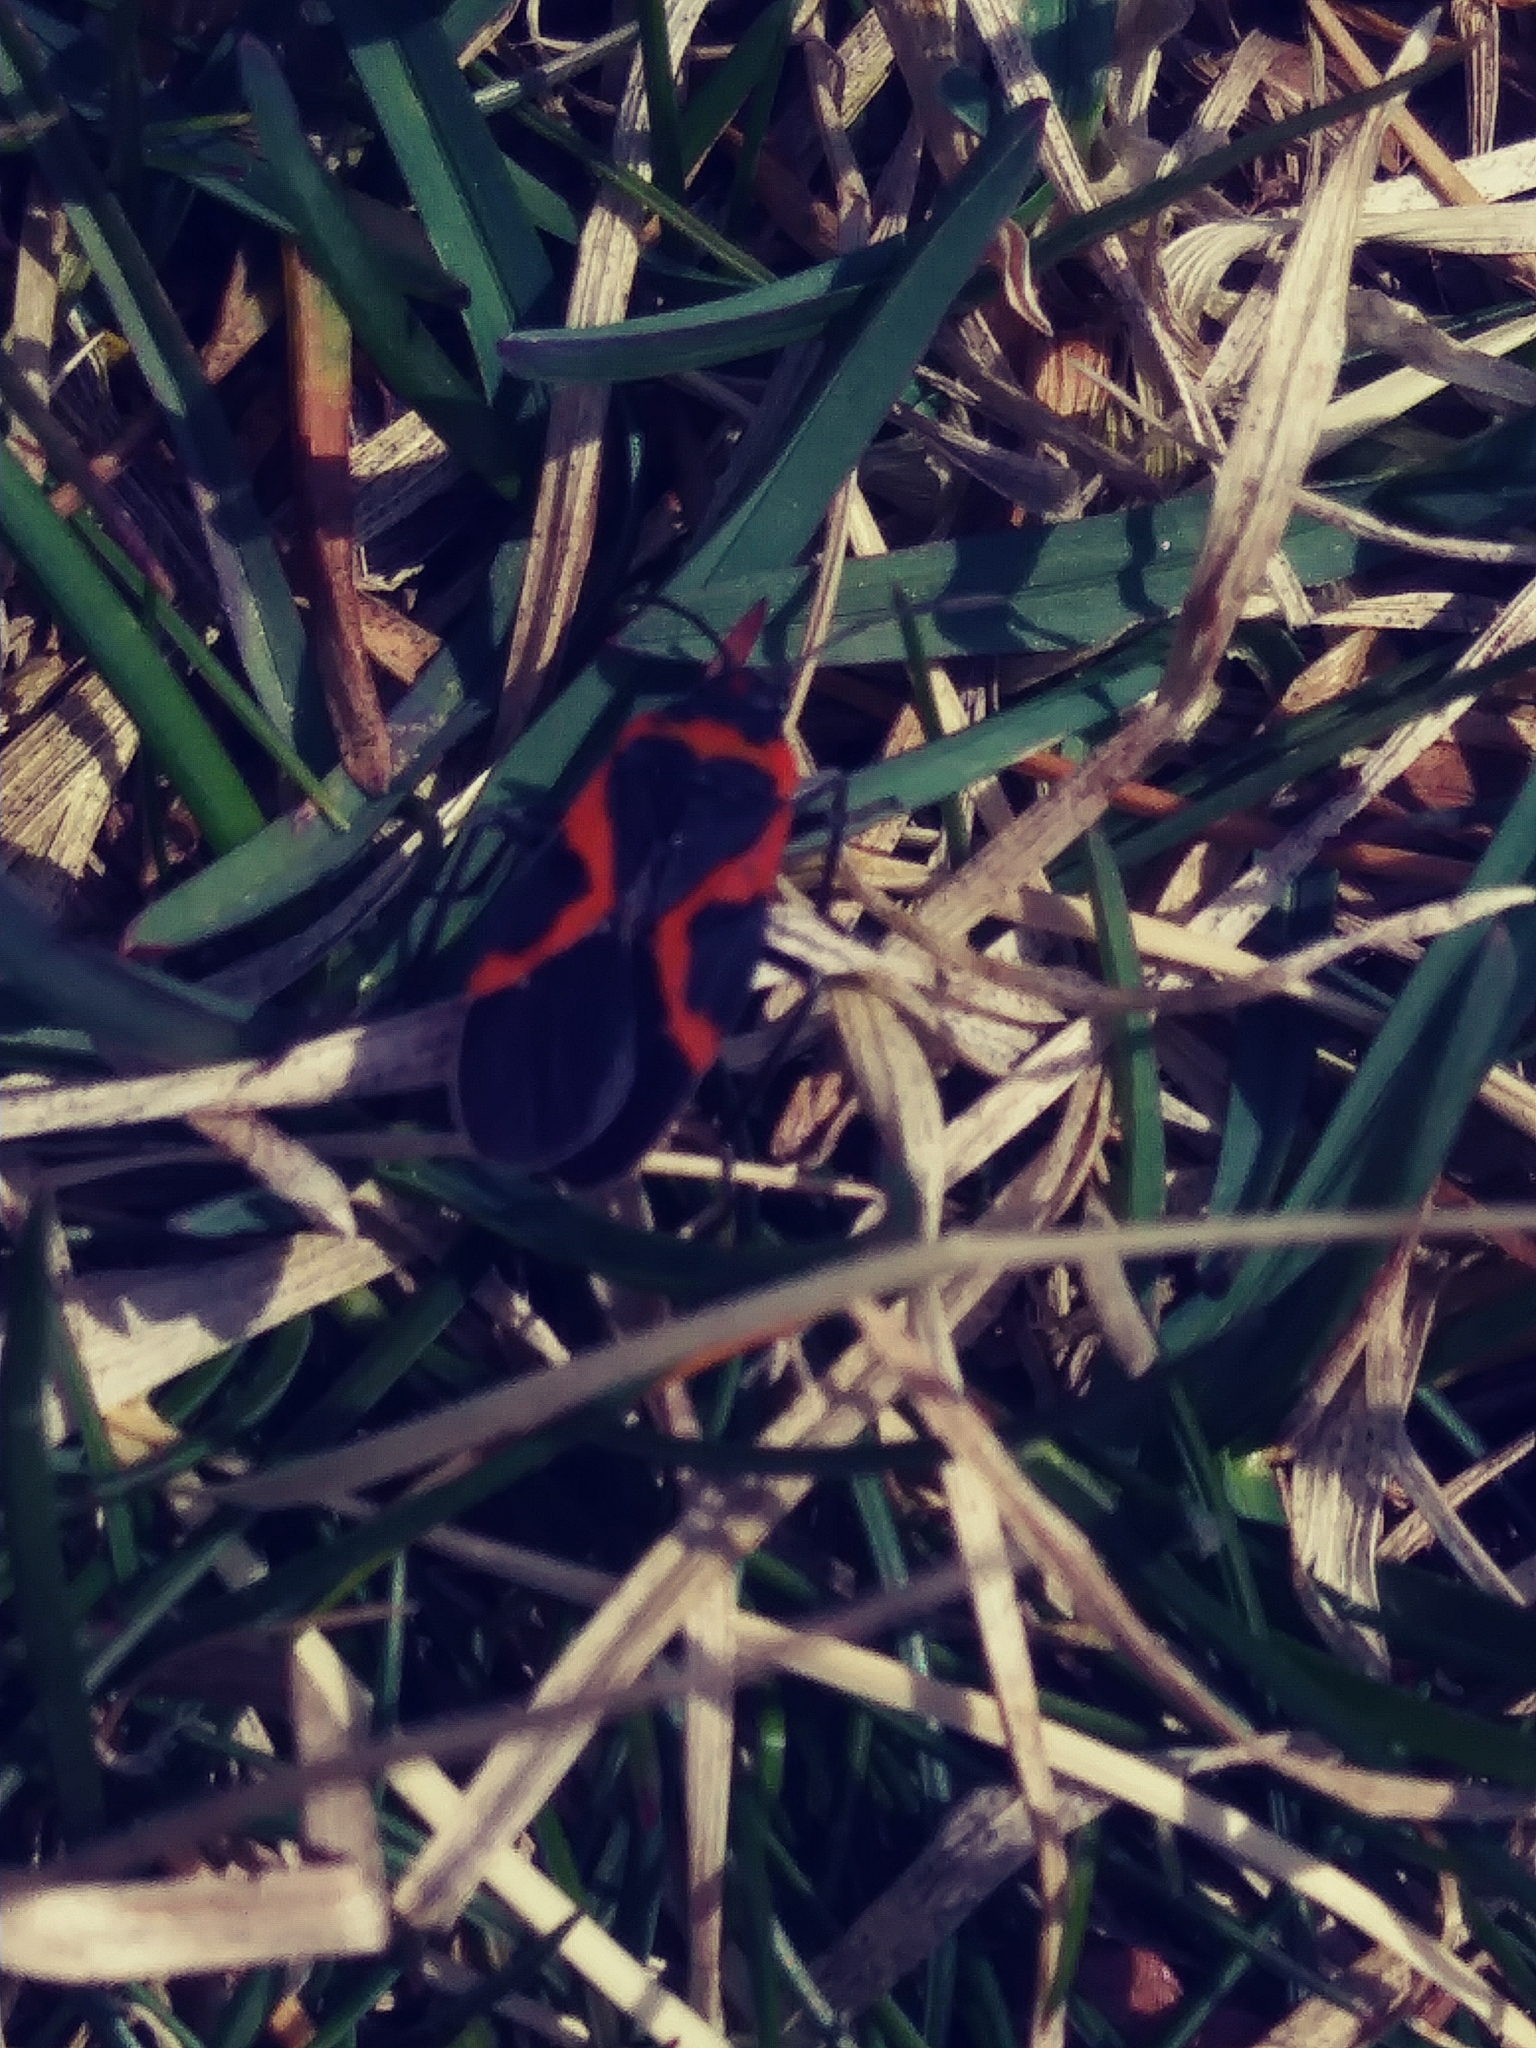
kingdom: Animalia
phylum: Arthropoda
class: Insecta
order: Hemiptera
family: Lygaeidae
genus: Lygaeus
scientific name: Lygaeus kalmii
